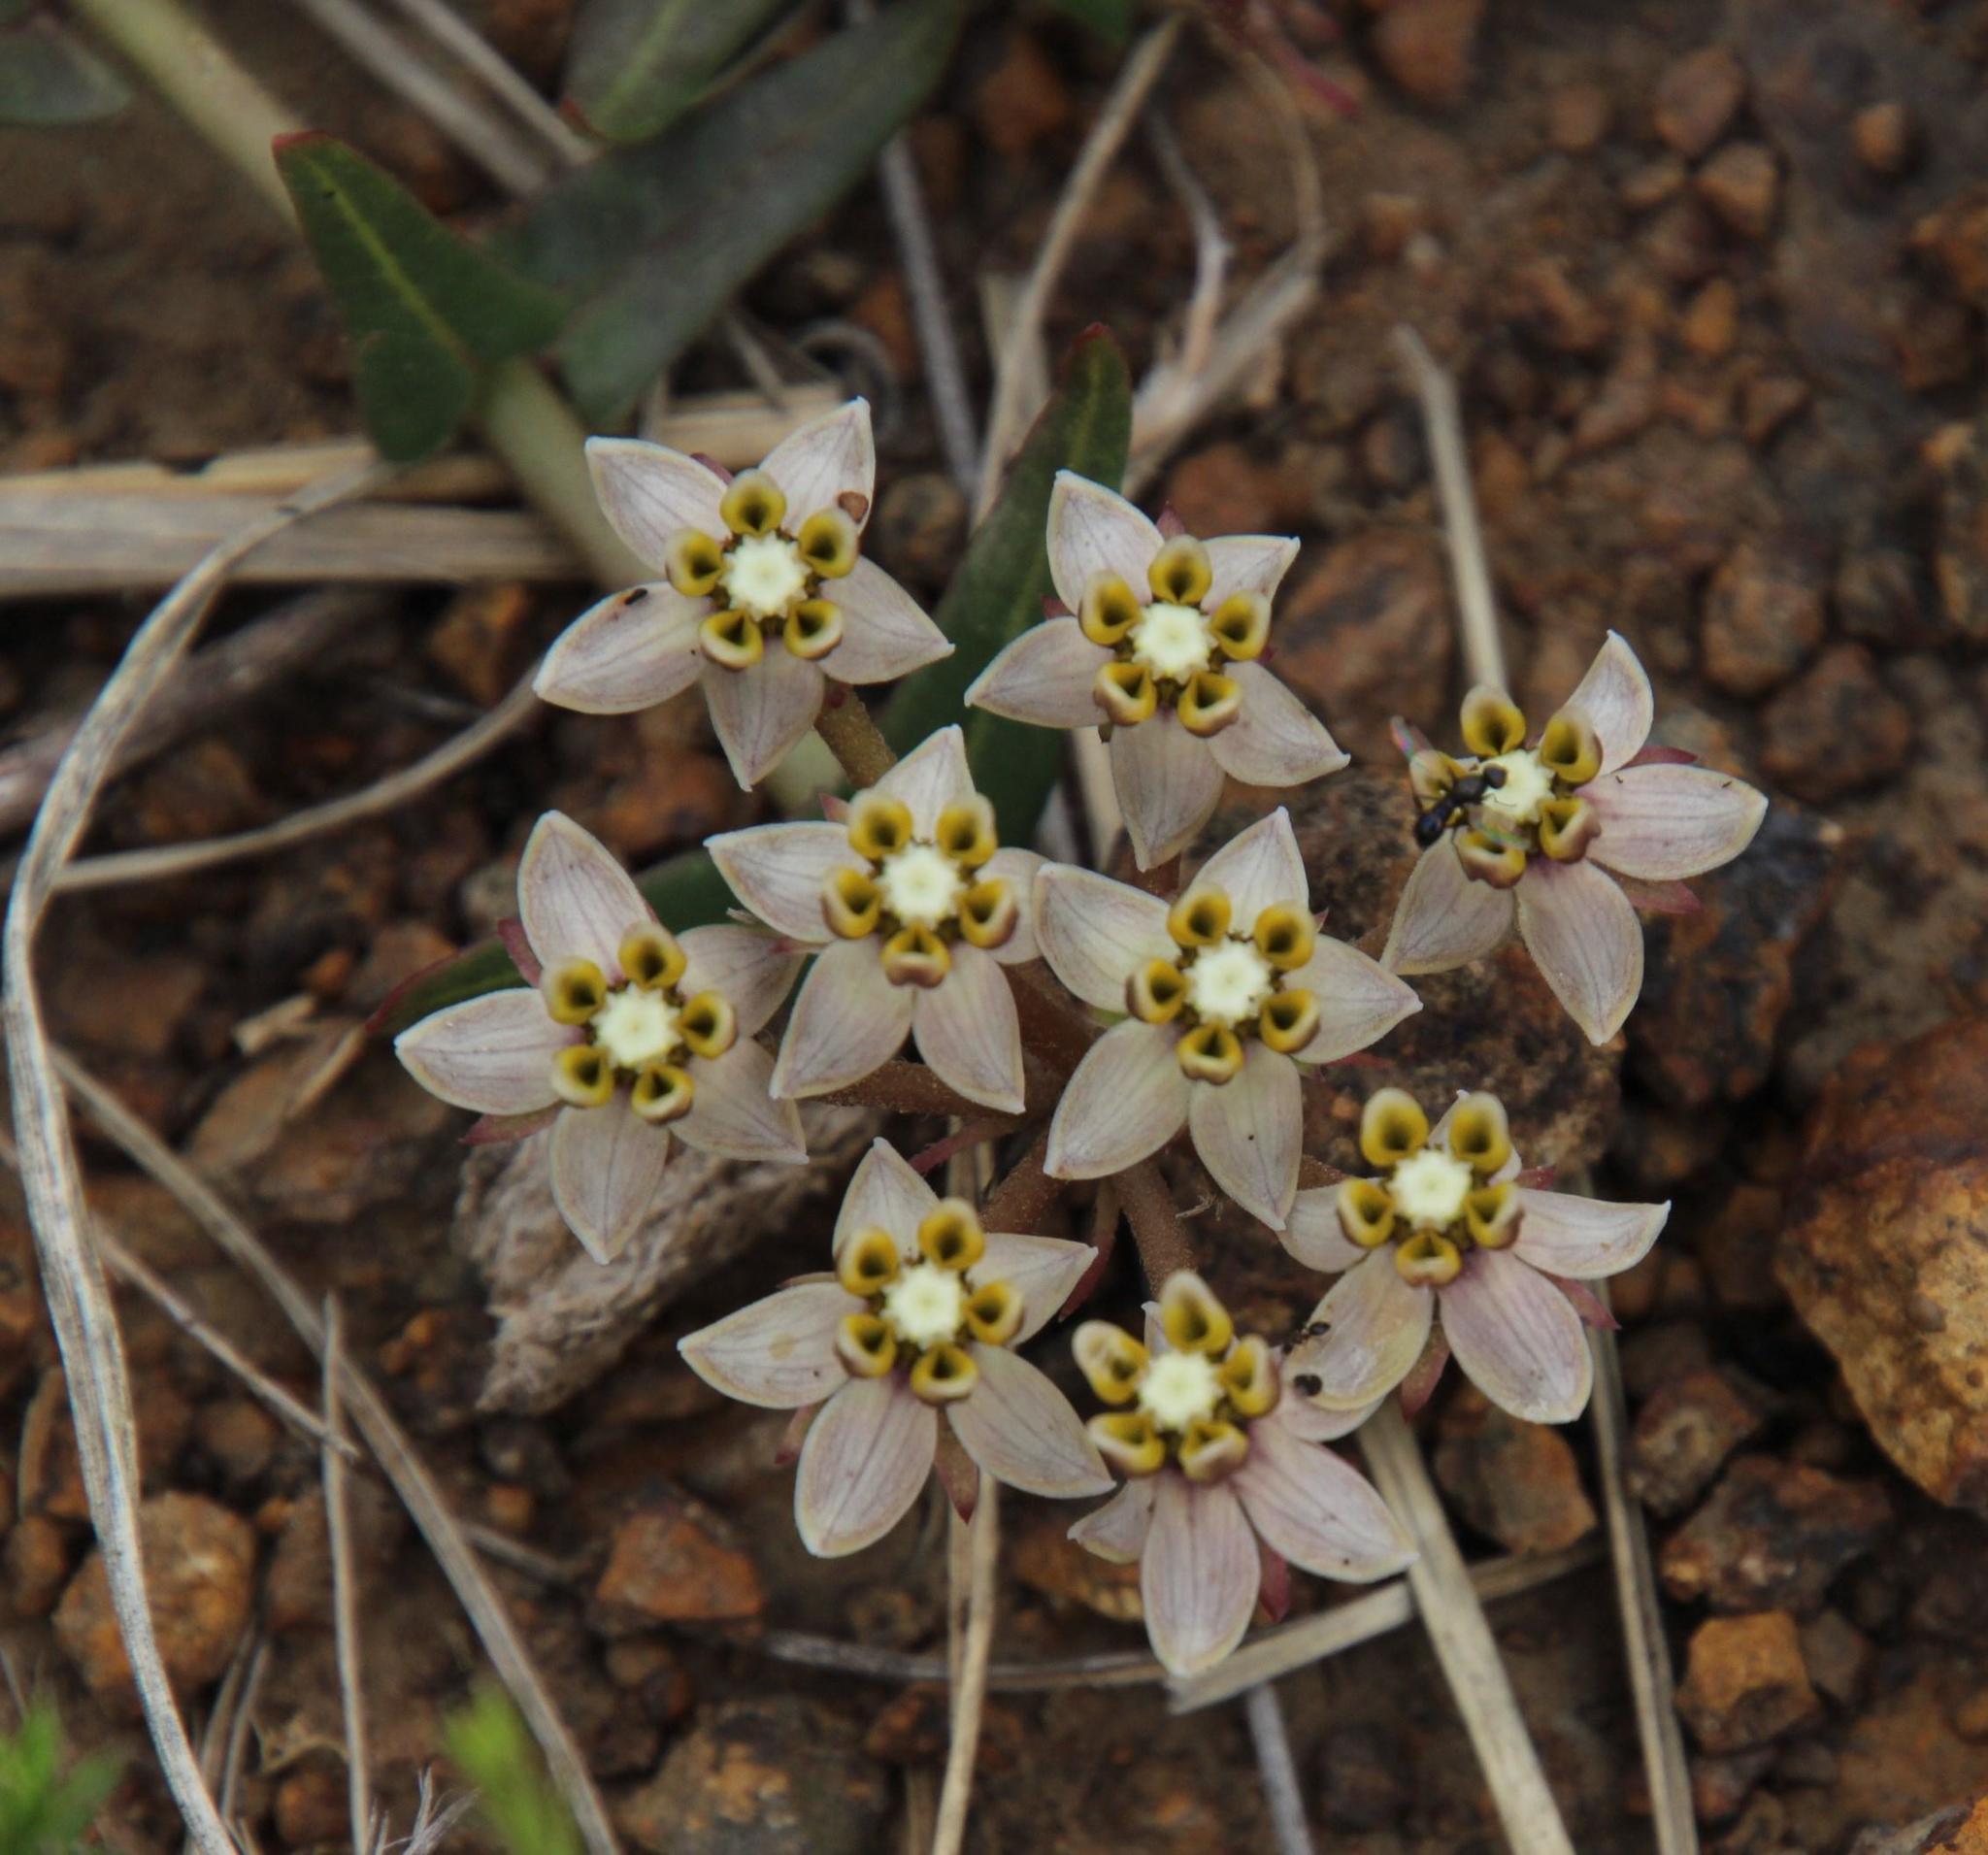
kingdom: Plantae
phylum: Tracheophyta
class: Magnoliopsida
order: Gentianales
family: Apocynaceae
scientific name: Apocynaceae
